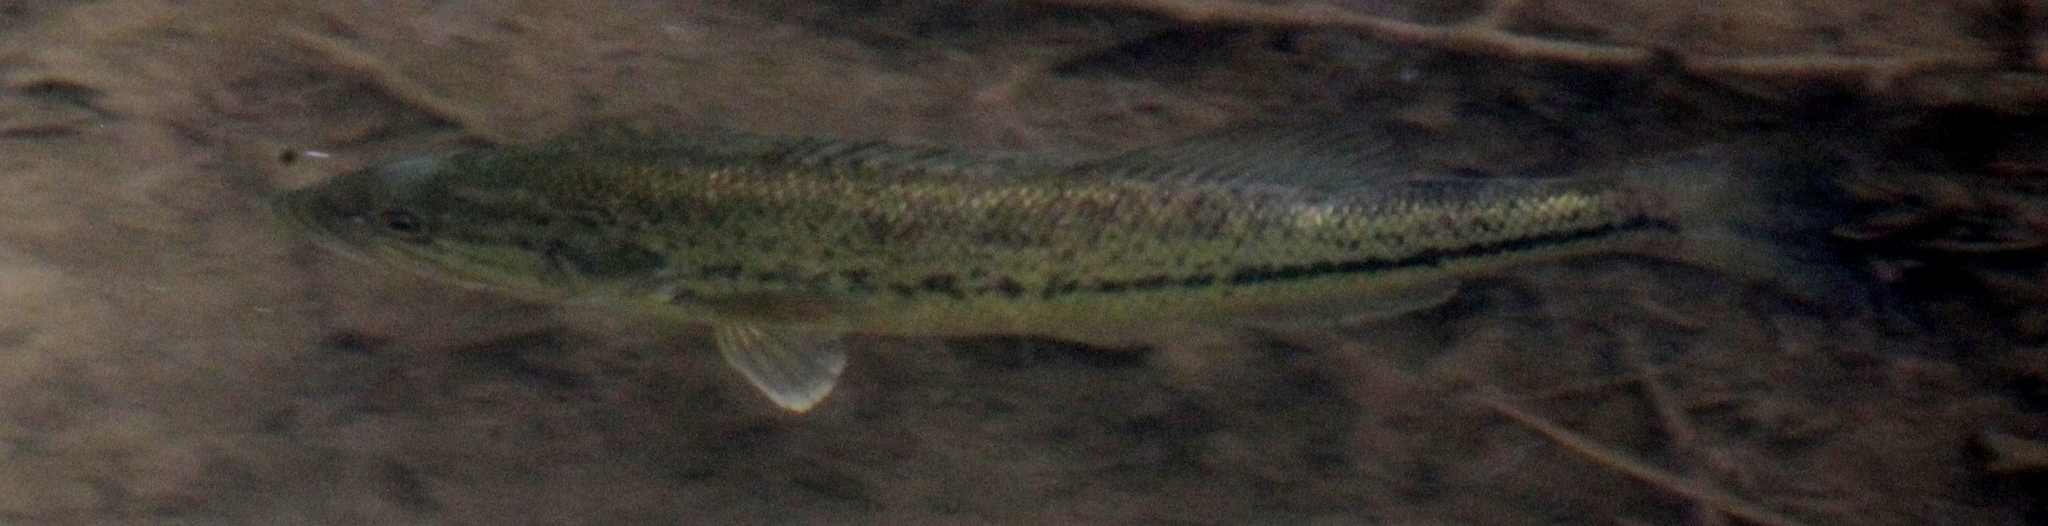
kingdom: Animalia
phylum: Chordata
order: Perciformes
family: Centrarchidae
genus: Micropterus
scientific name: Micropterus
